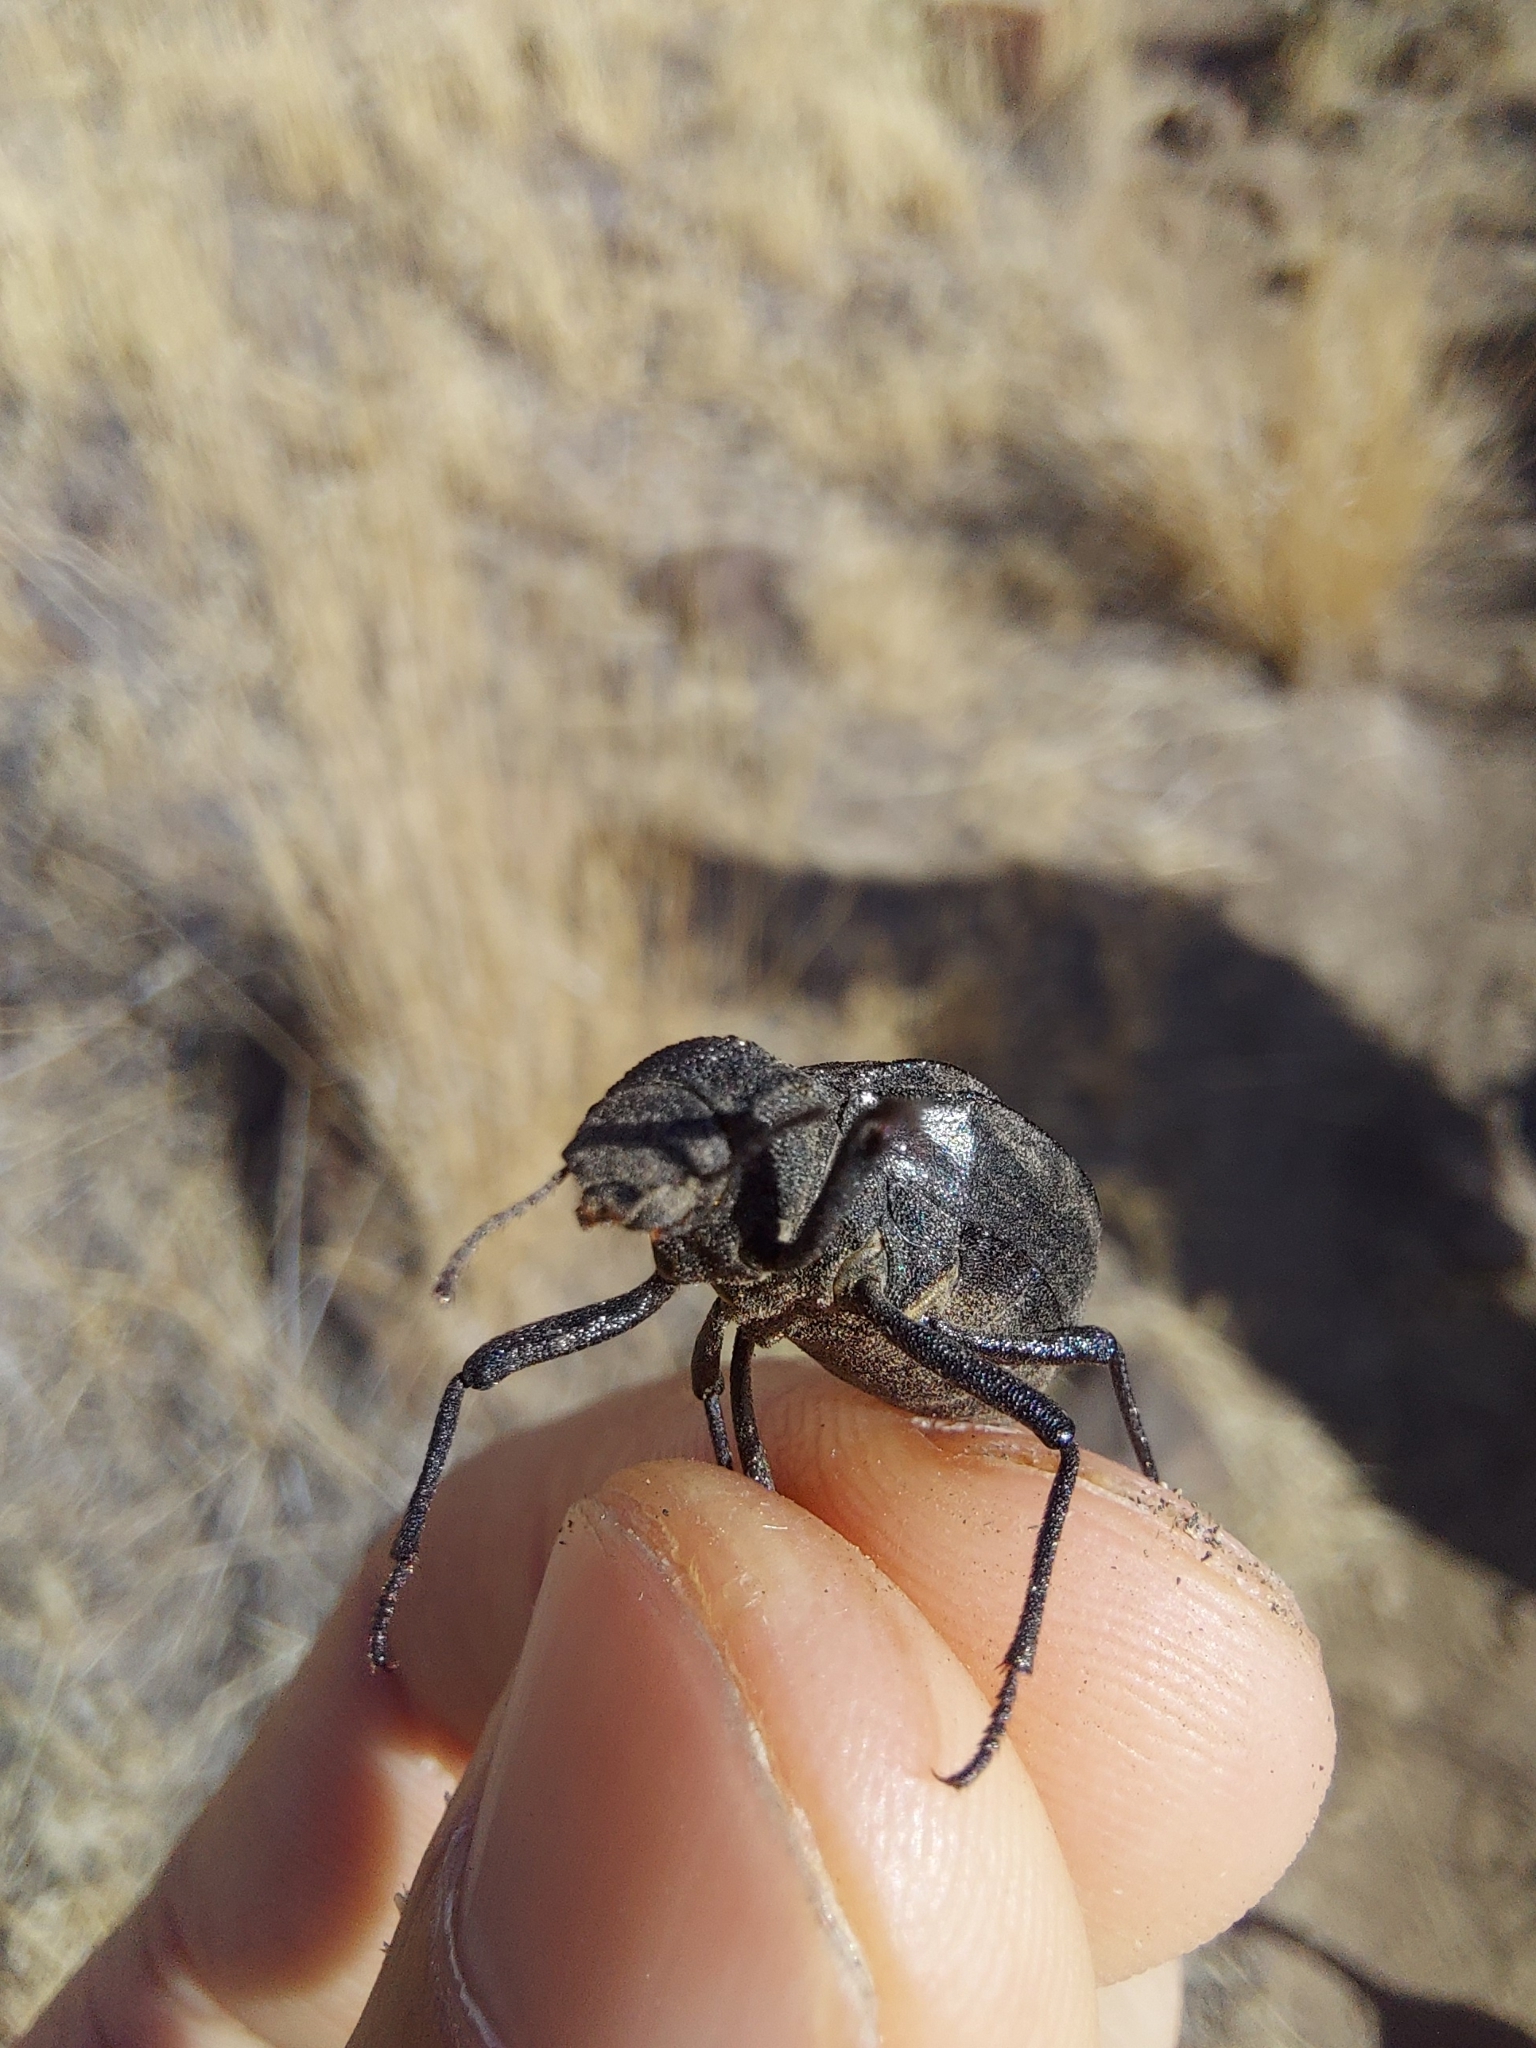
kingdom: Animalia
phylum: Arthropoda
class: Insecta
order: Coleoptera
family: Tenebrionidae
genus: Philolithus
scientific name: Philolithus densicollis
